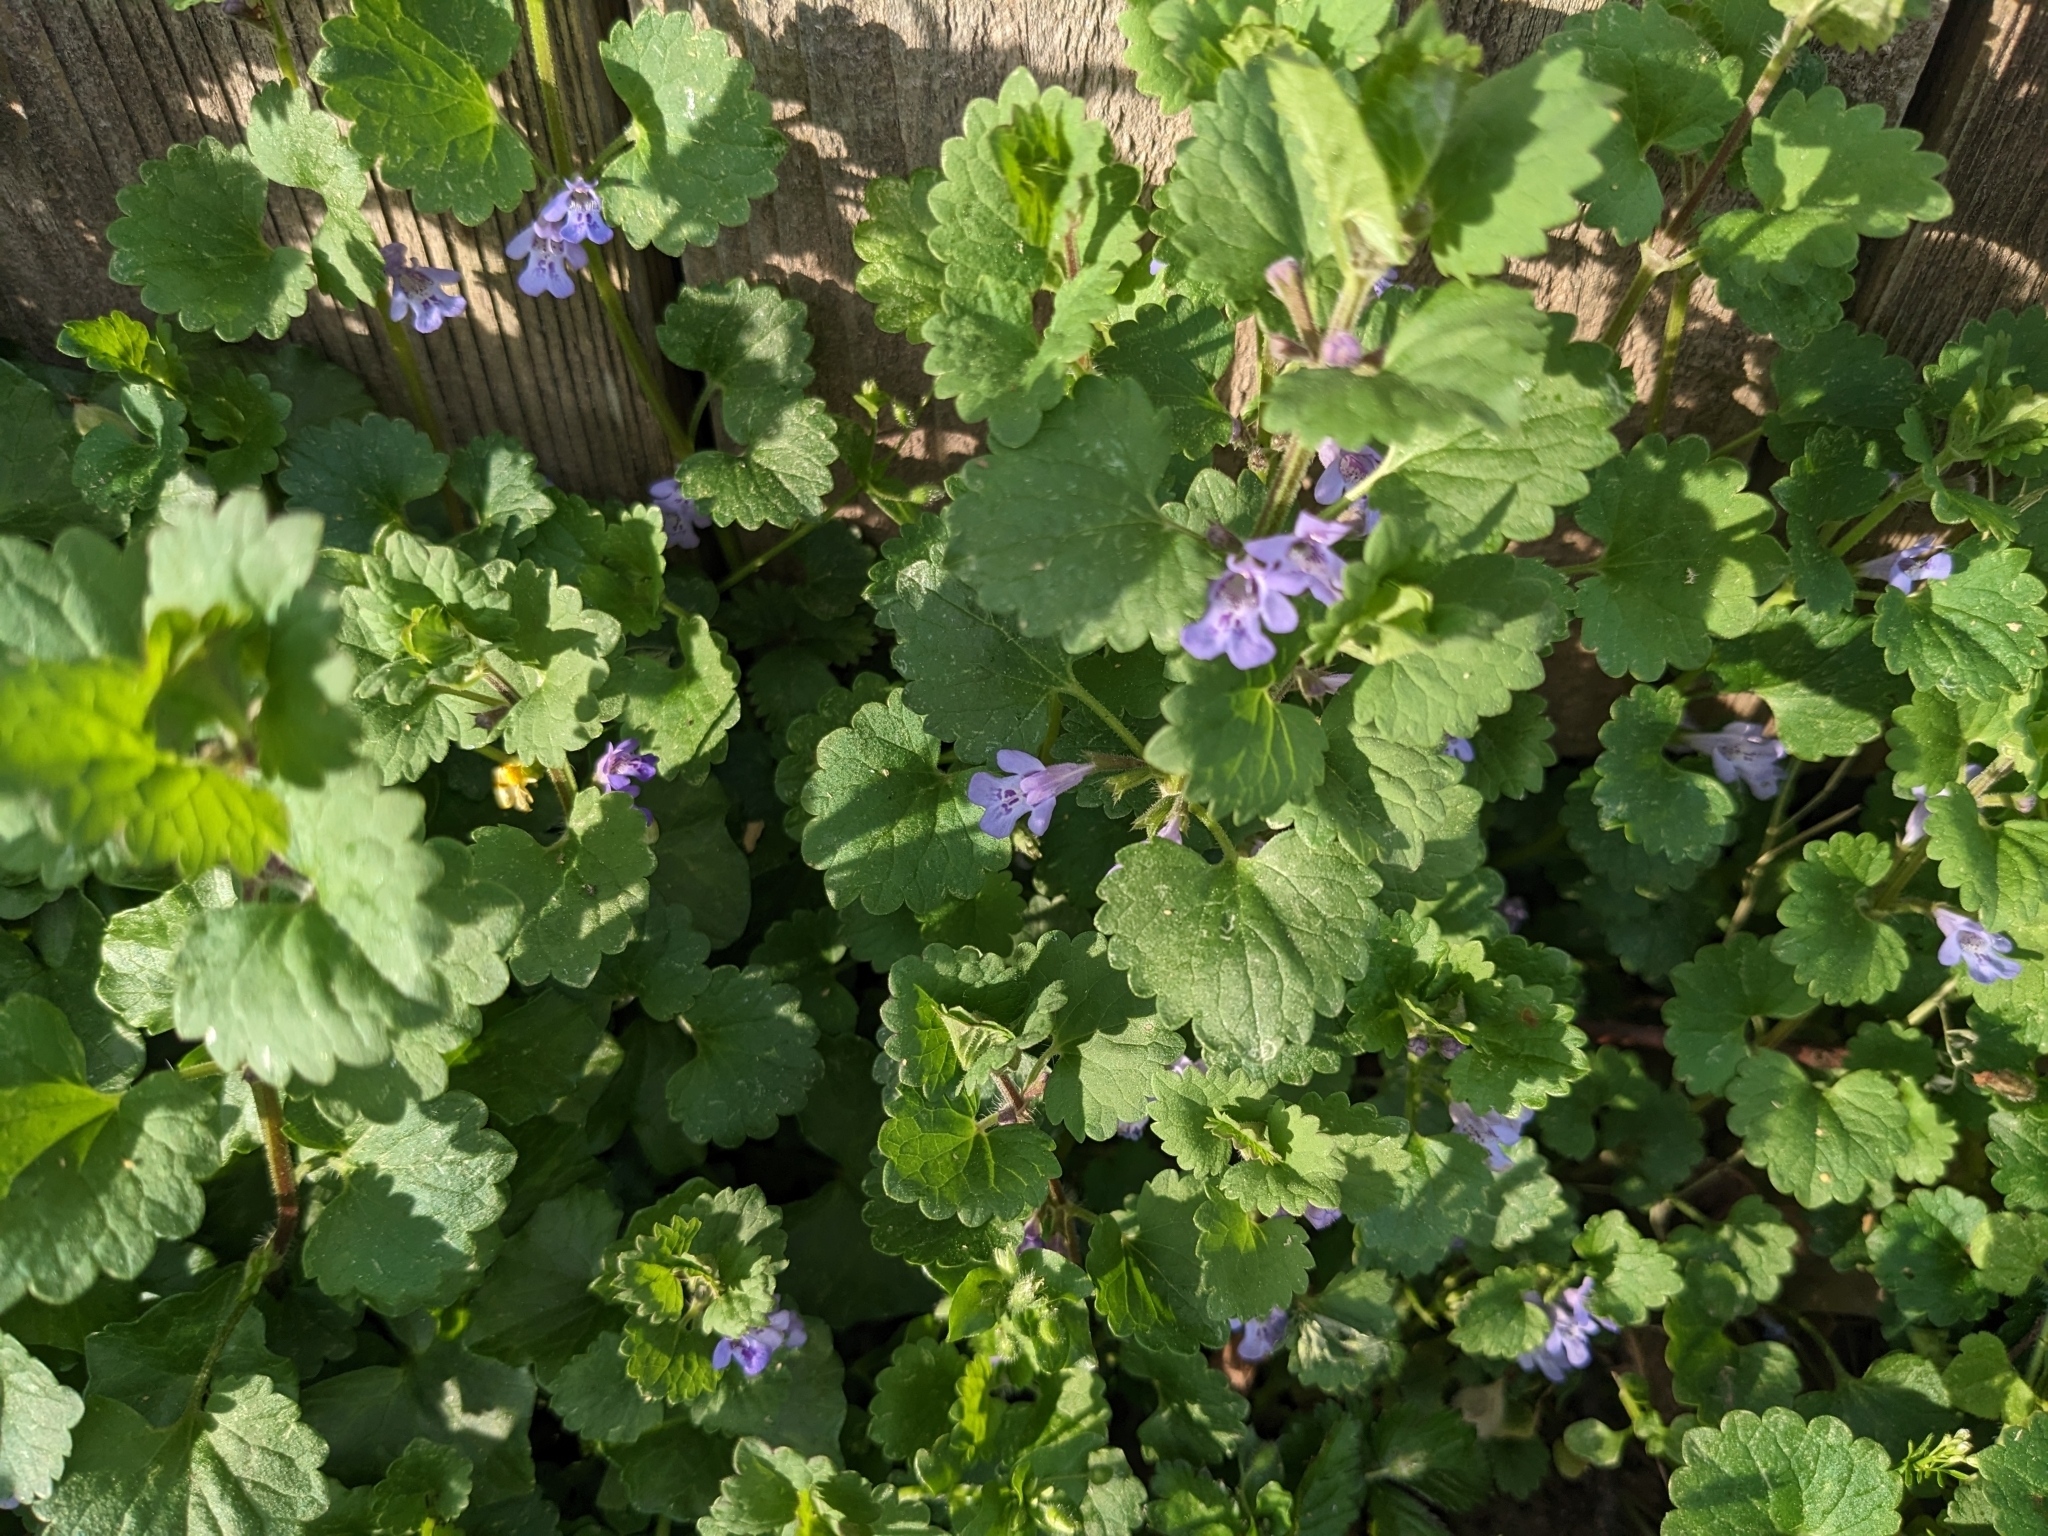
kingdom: Plantae
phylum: Tracheophyta
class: Magnoliopsida
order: Lamiales
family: Lamiaceae
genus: Glechoma
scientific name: Glechoma hederacea
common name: Ground ivy
